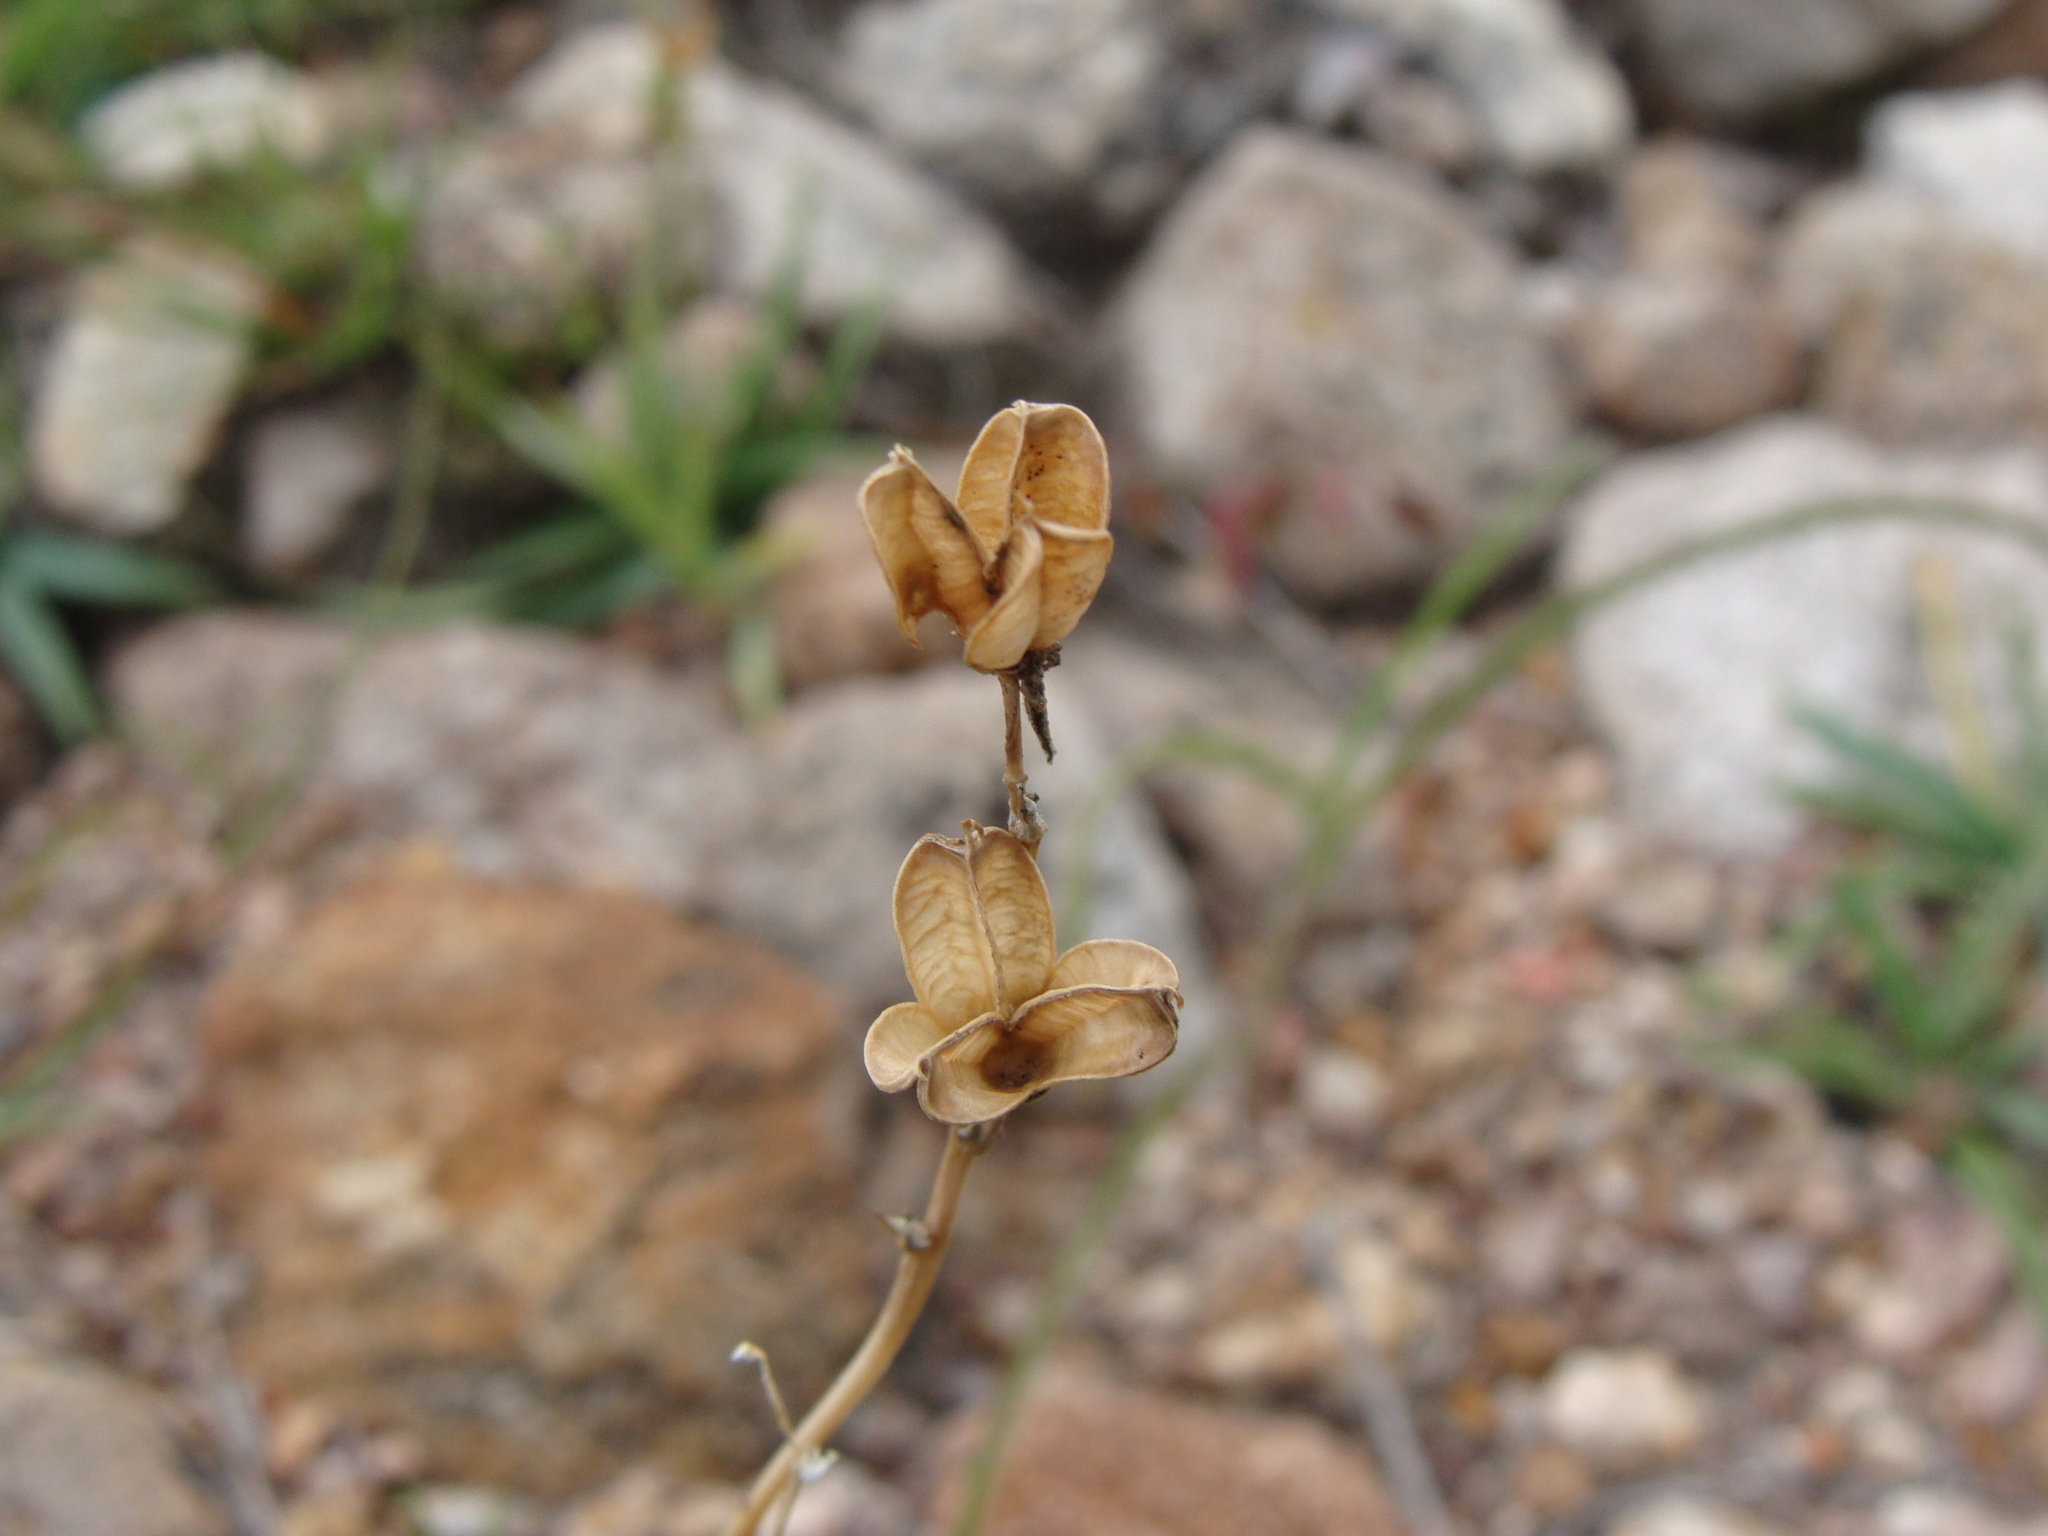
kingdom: Plantae
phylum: Tracheophyta
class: Liliopsida
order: Asparagales
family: Asparagaceae
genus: Echeandia
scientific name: Echeandia nana
